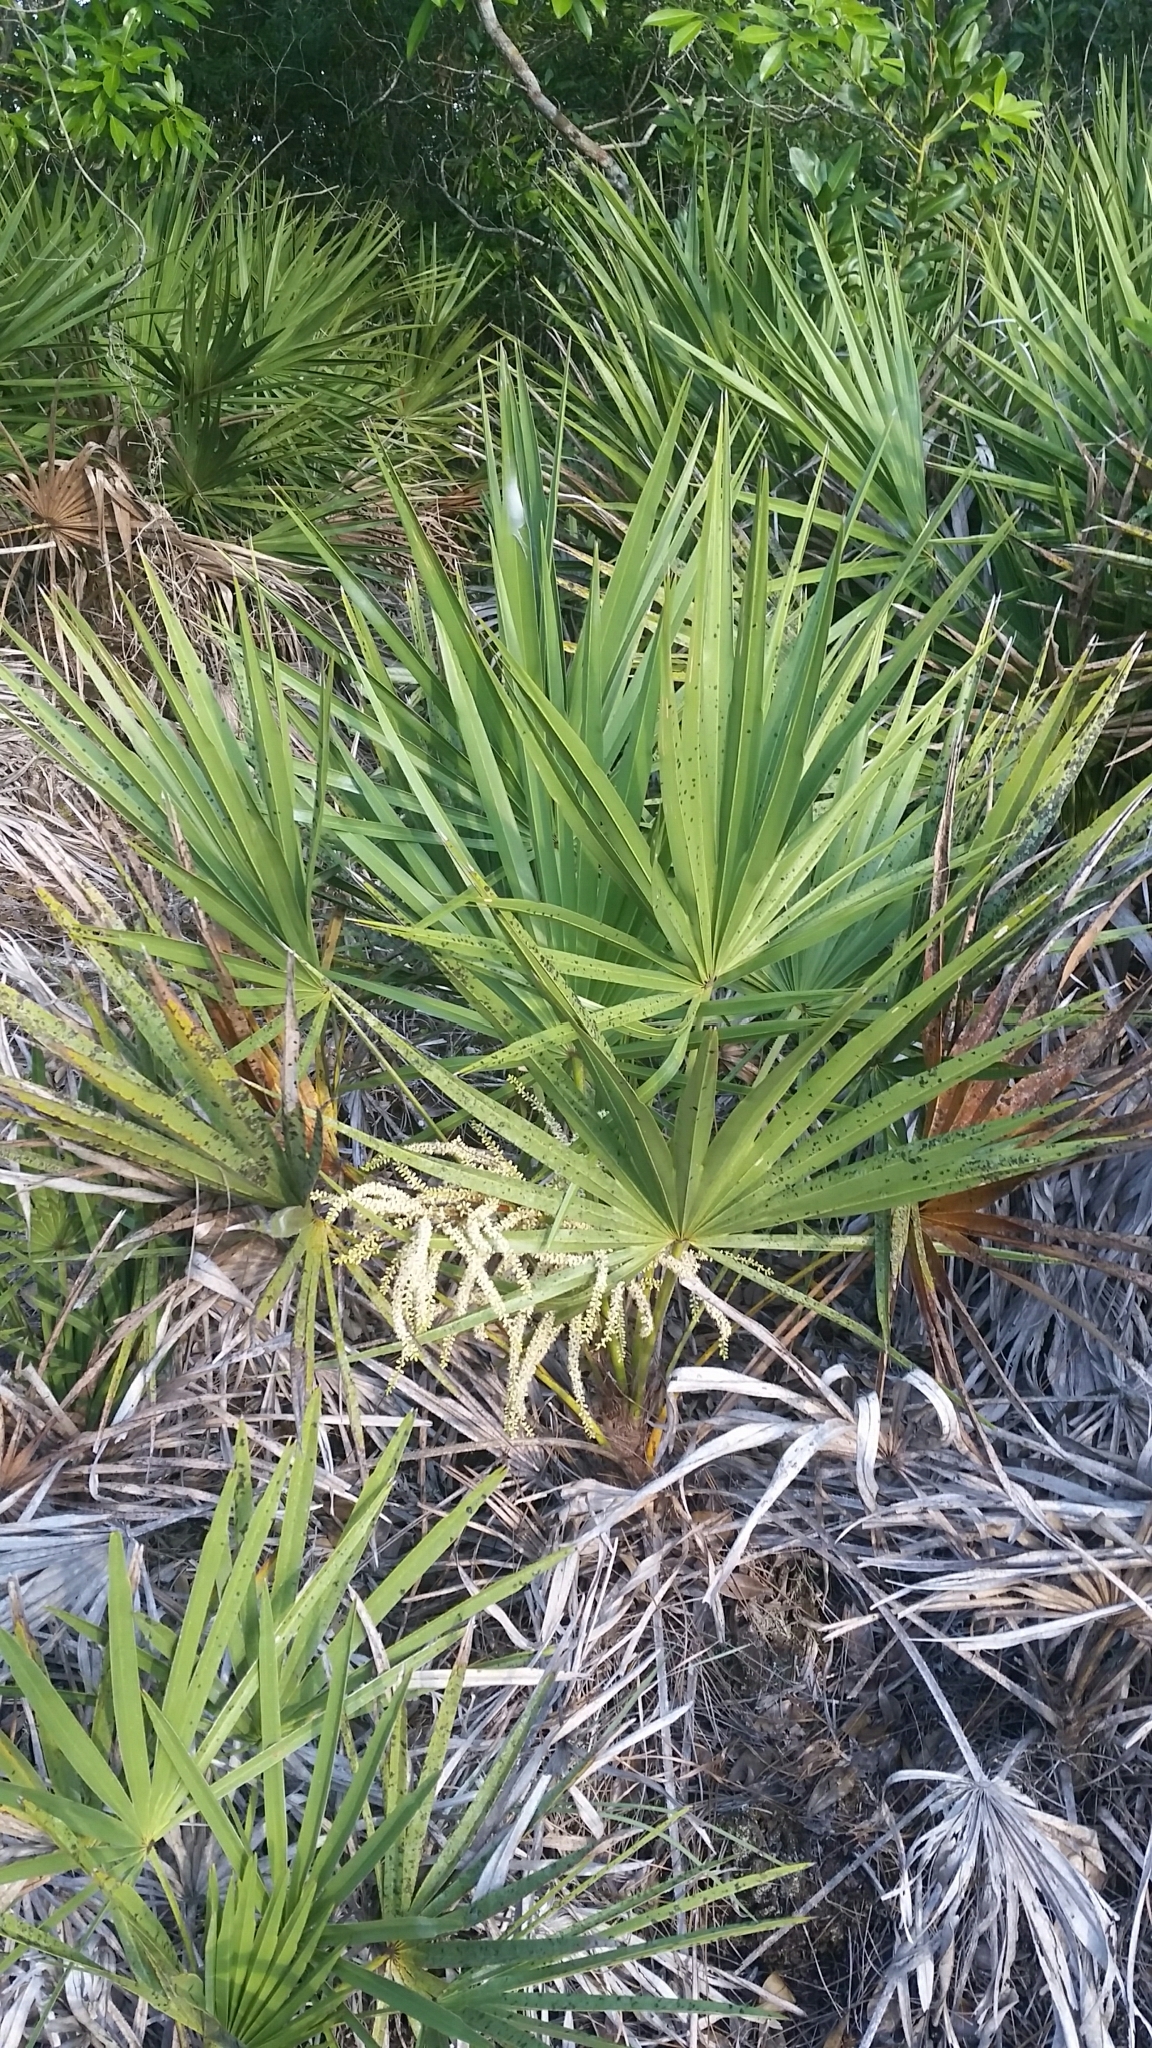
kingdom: Plantae
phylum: Tracheophyta
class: Liliopsida
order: Arecales
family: Arecaceae
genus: Serenoa
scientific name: Serenoa repens
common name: Saw-palmetto
